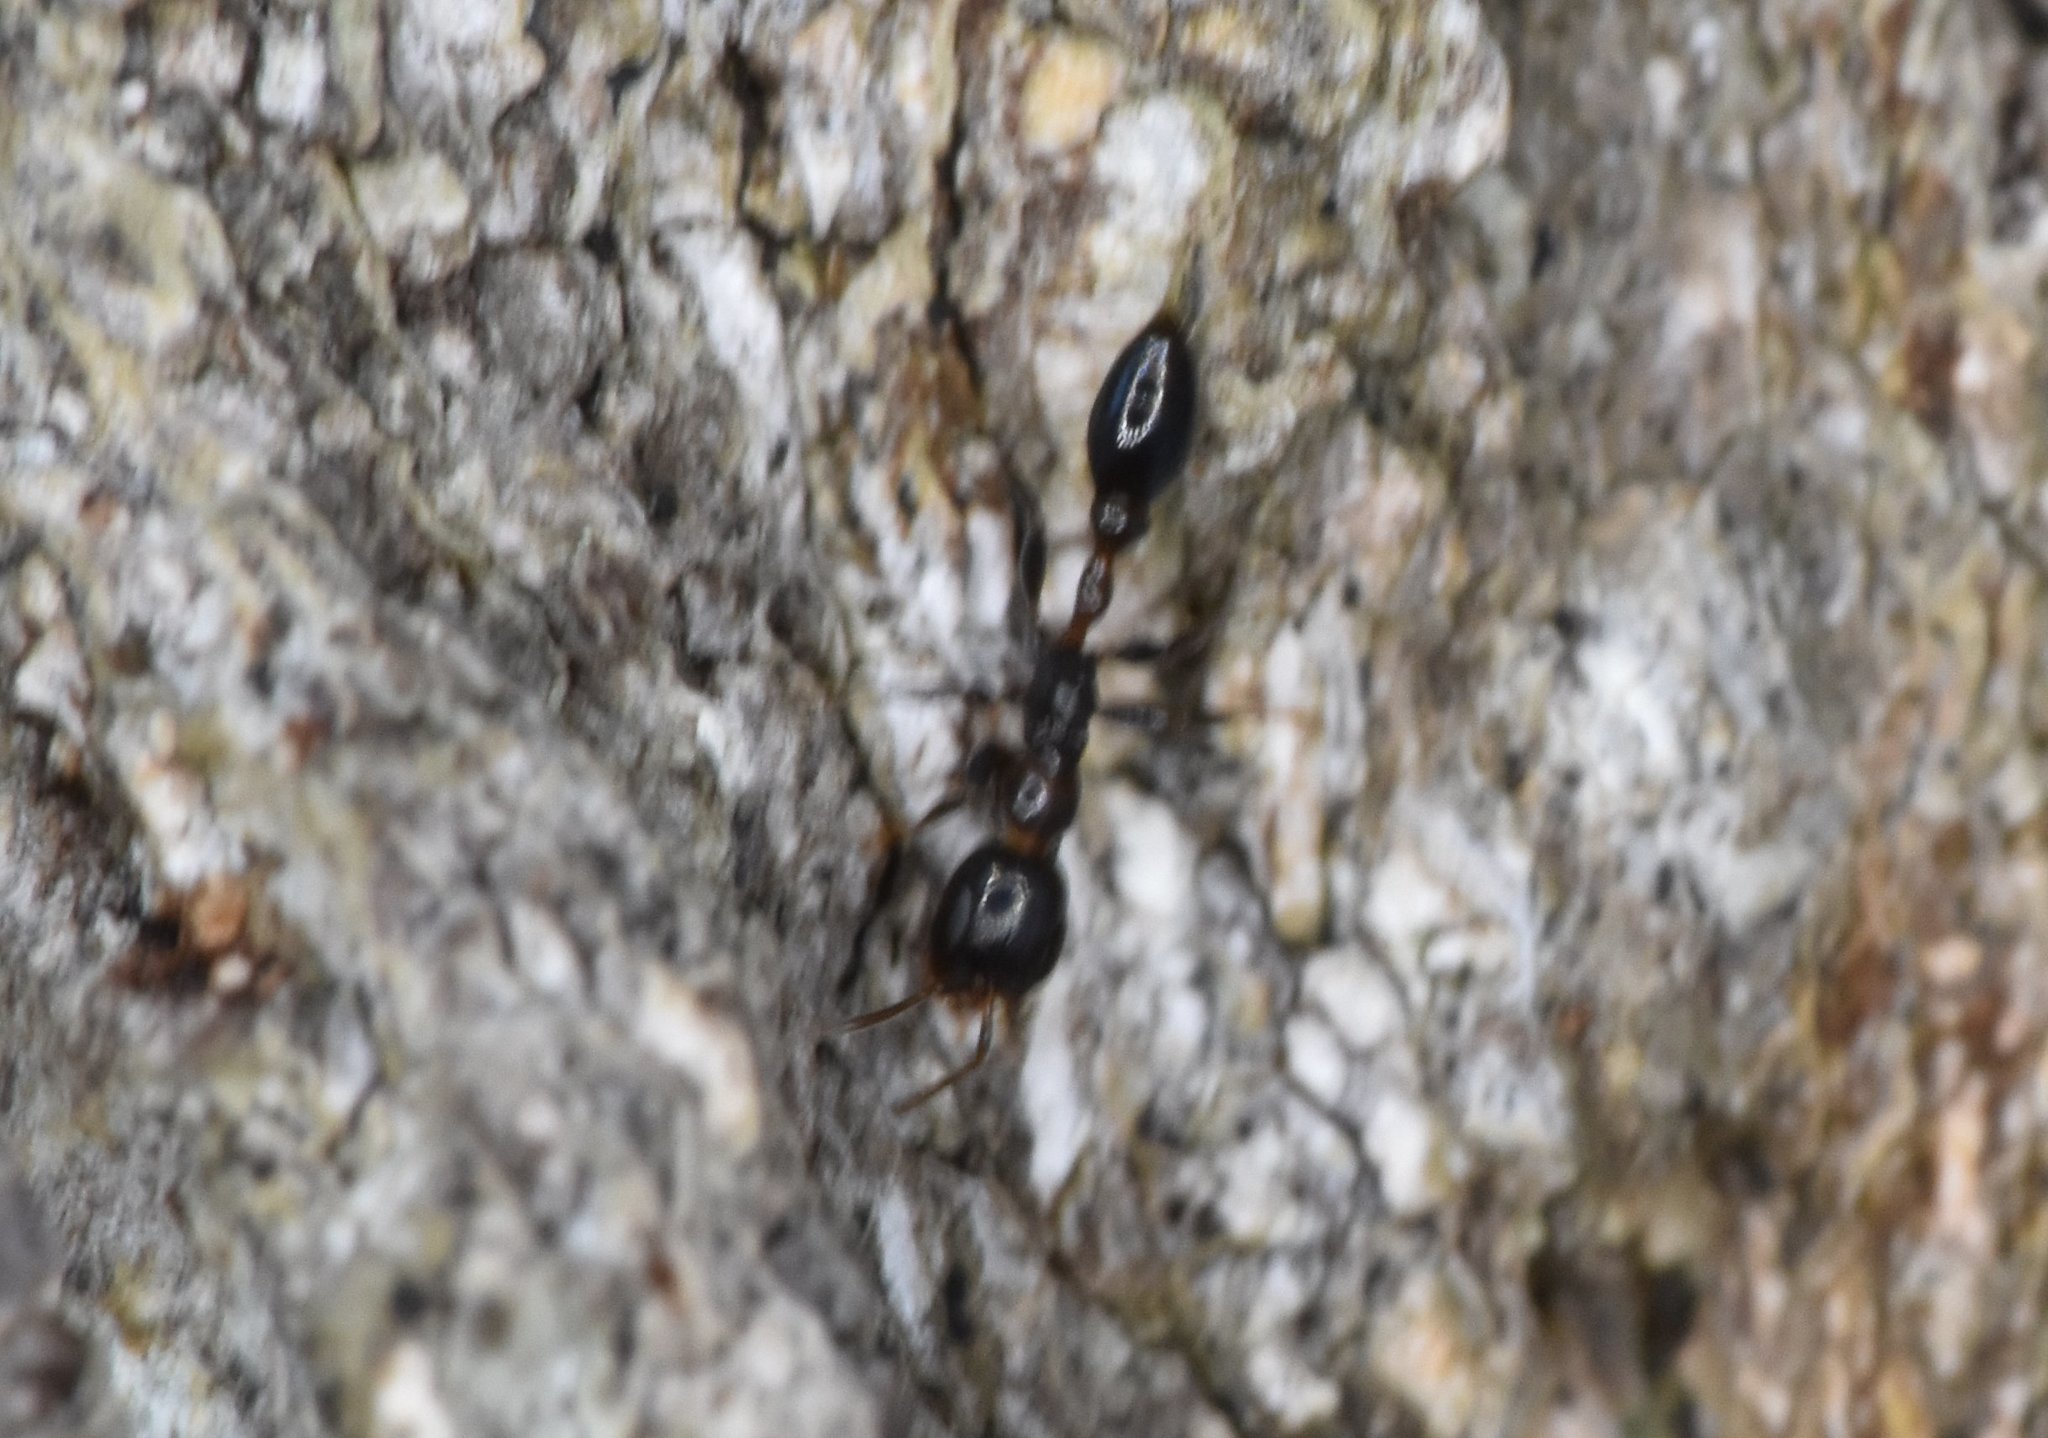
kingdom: Animalia
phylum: Arthropoda
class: Insecta
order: Hymenoptera
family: Formicidae
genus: Pseudomyrmex
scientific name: Pseudomyrmex ejectus
